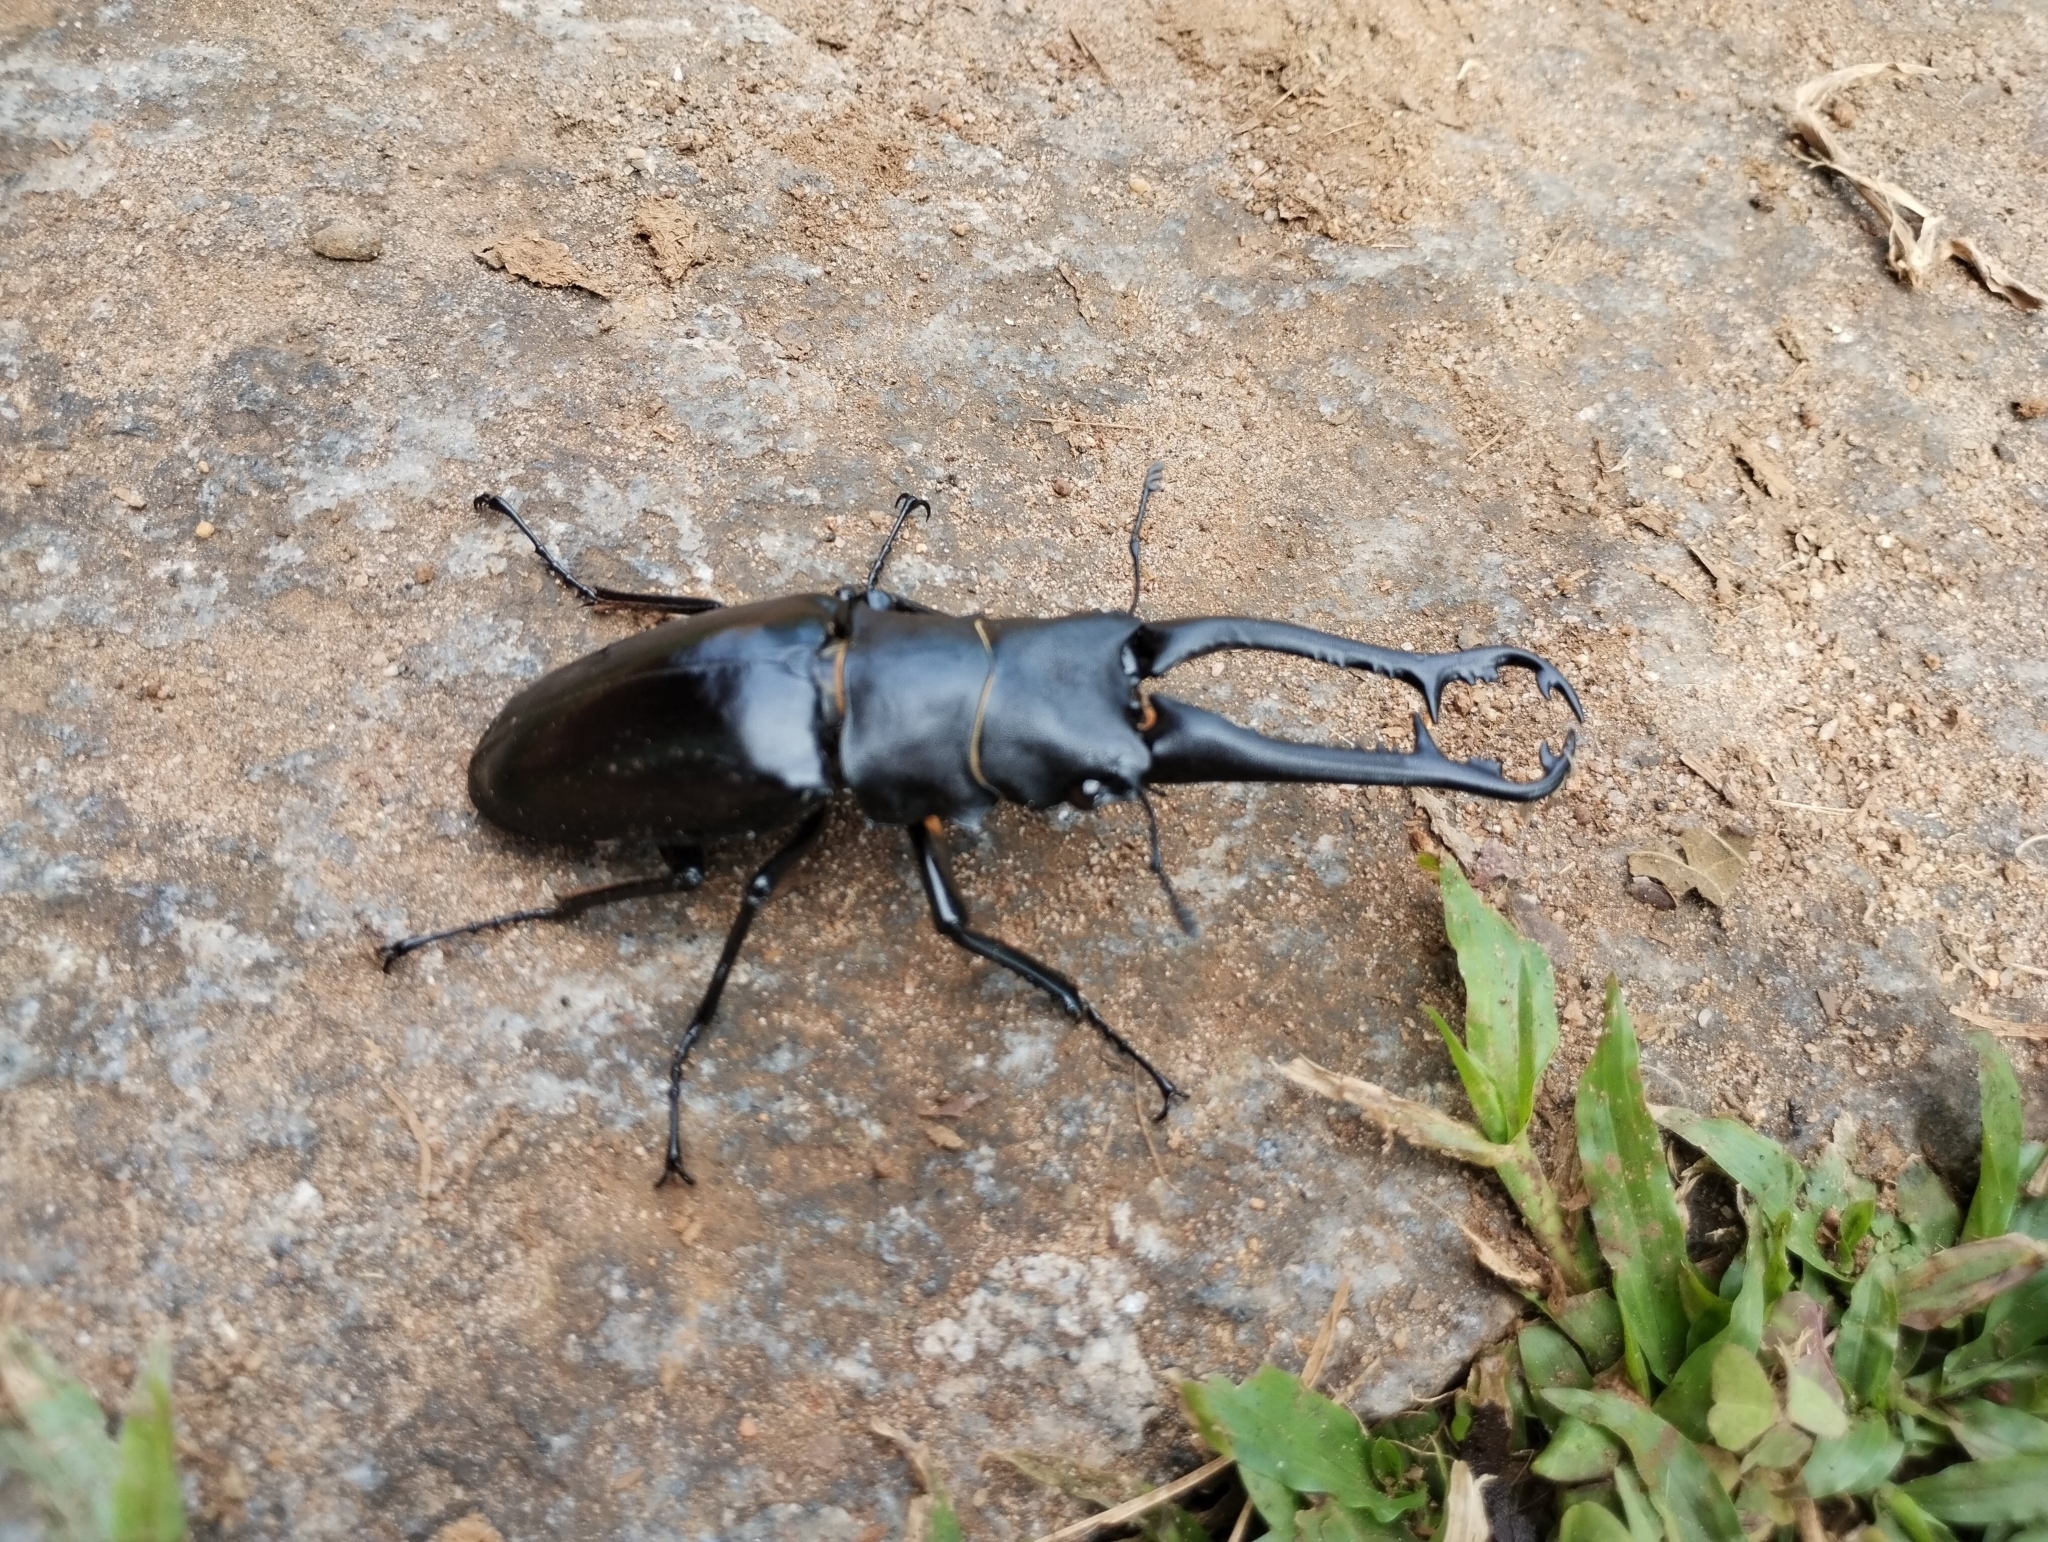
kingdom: Animalia
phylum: Arthropoda
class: Insecta
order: Coleoptera
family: Lucanidae
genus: Prosopocoilus
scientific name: Prosopocoilus girafa
